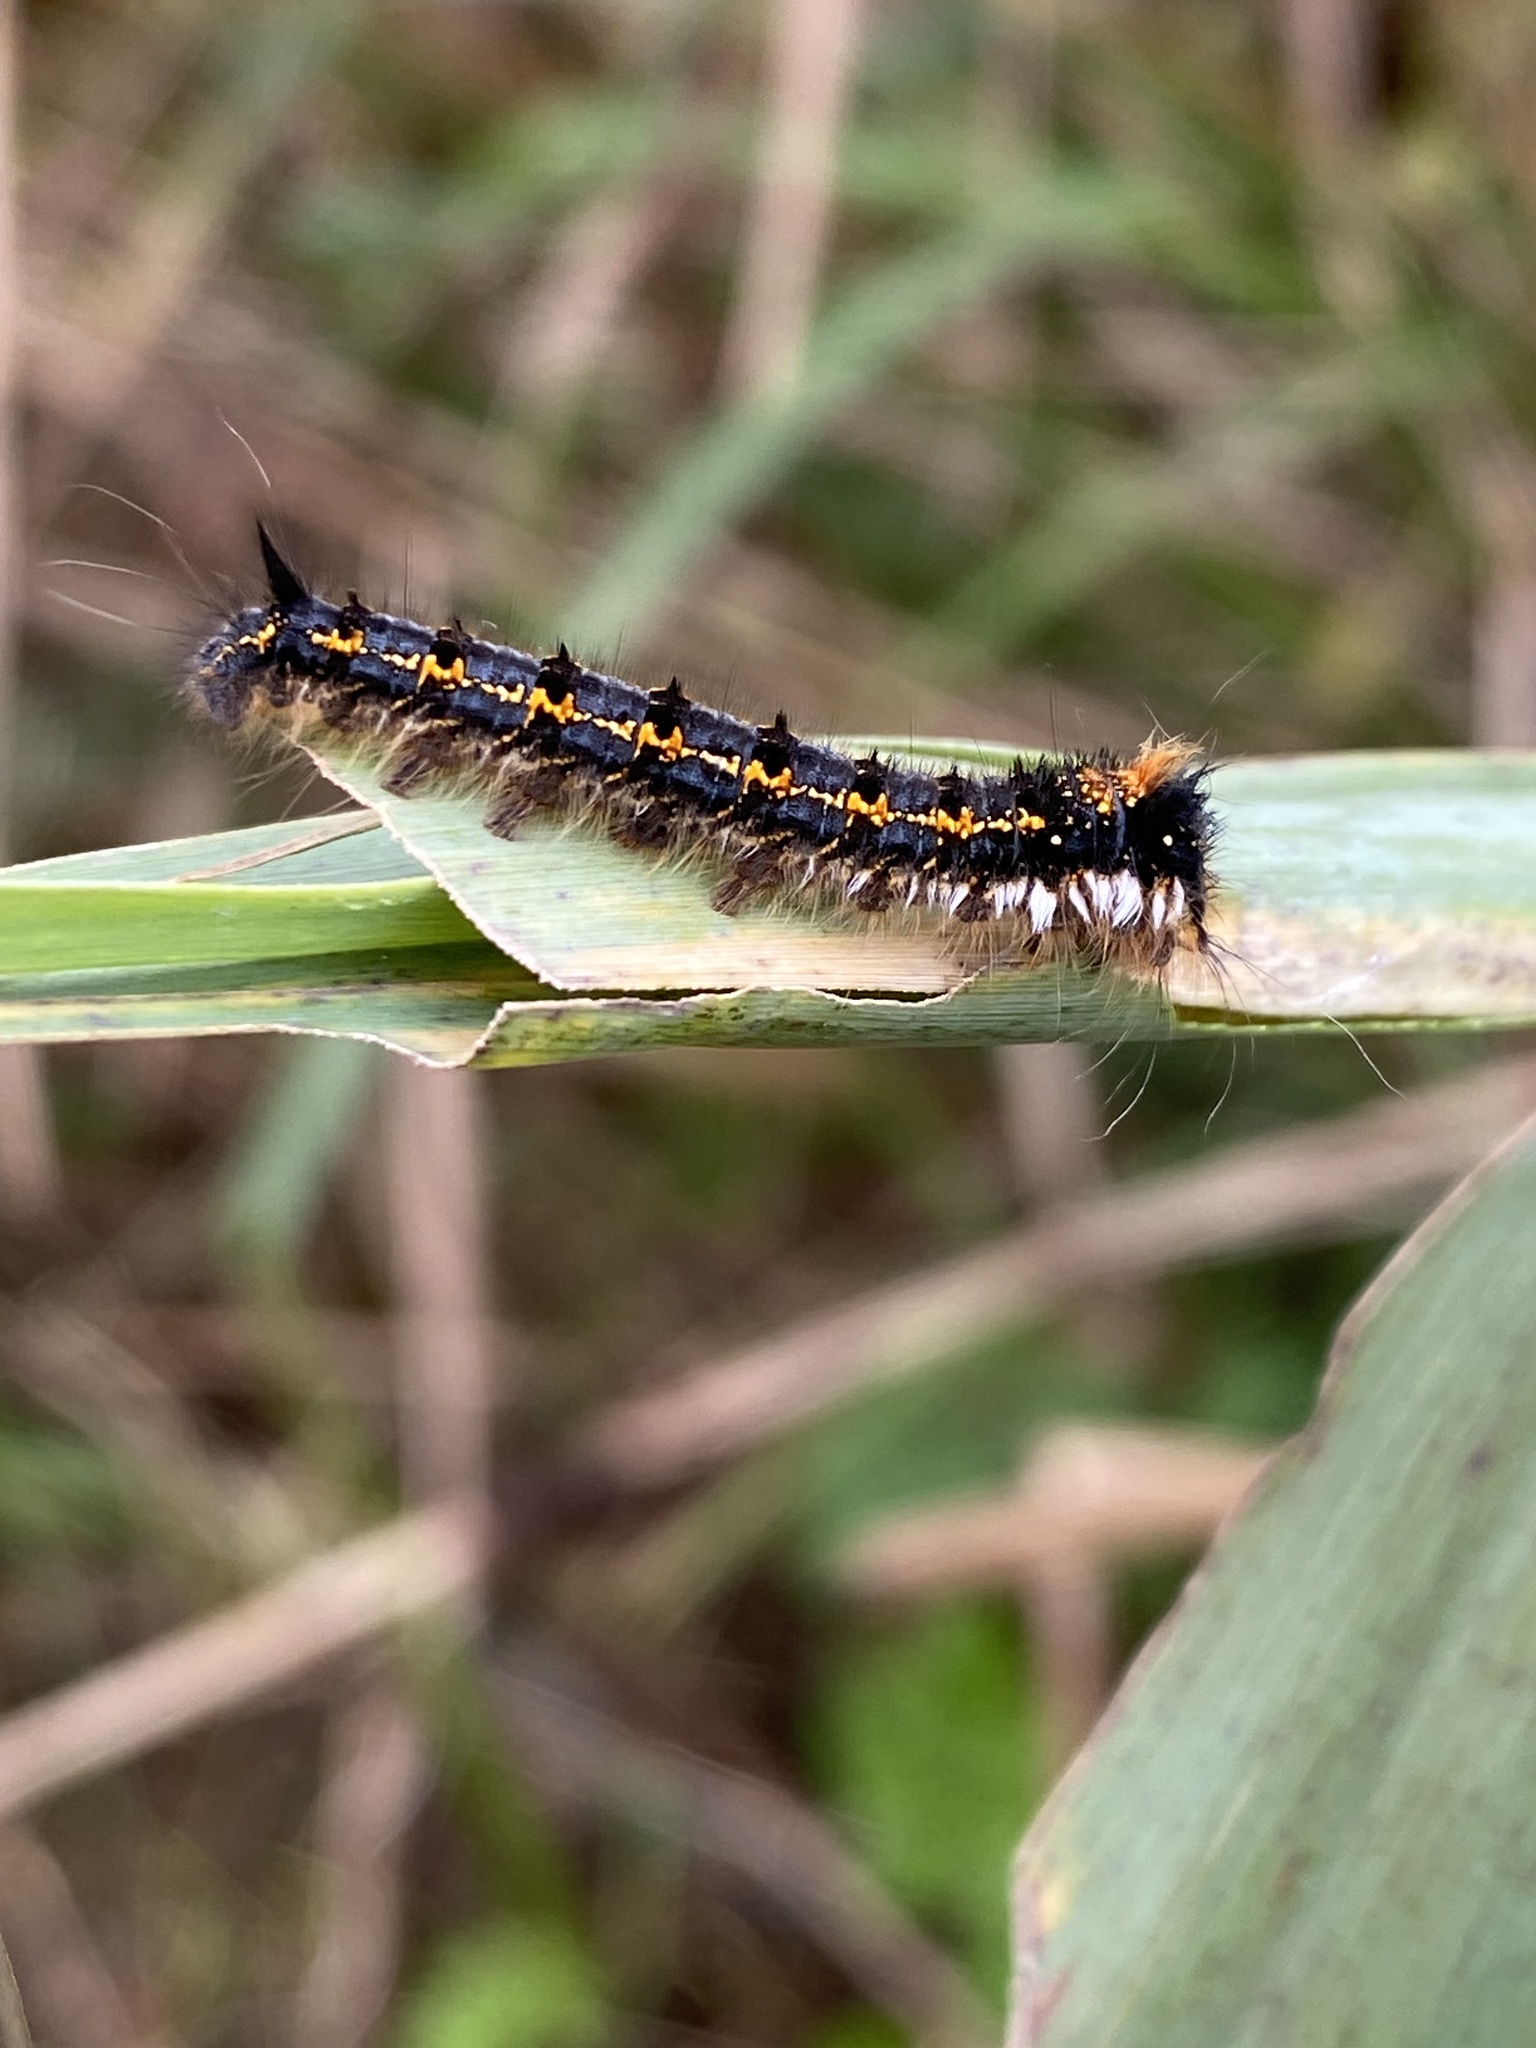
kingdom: Animalia
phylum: Arthropoda
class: Insecta
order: Lepidoptera
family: Lasiocampidae
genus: Euthrix
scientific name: Euthrix potatoria
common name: Drinker
